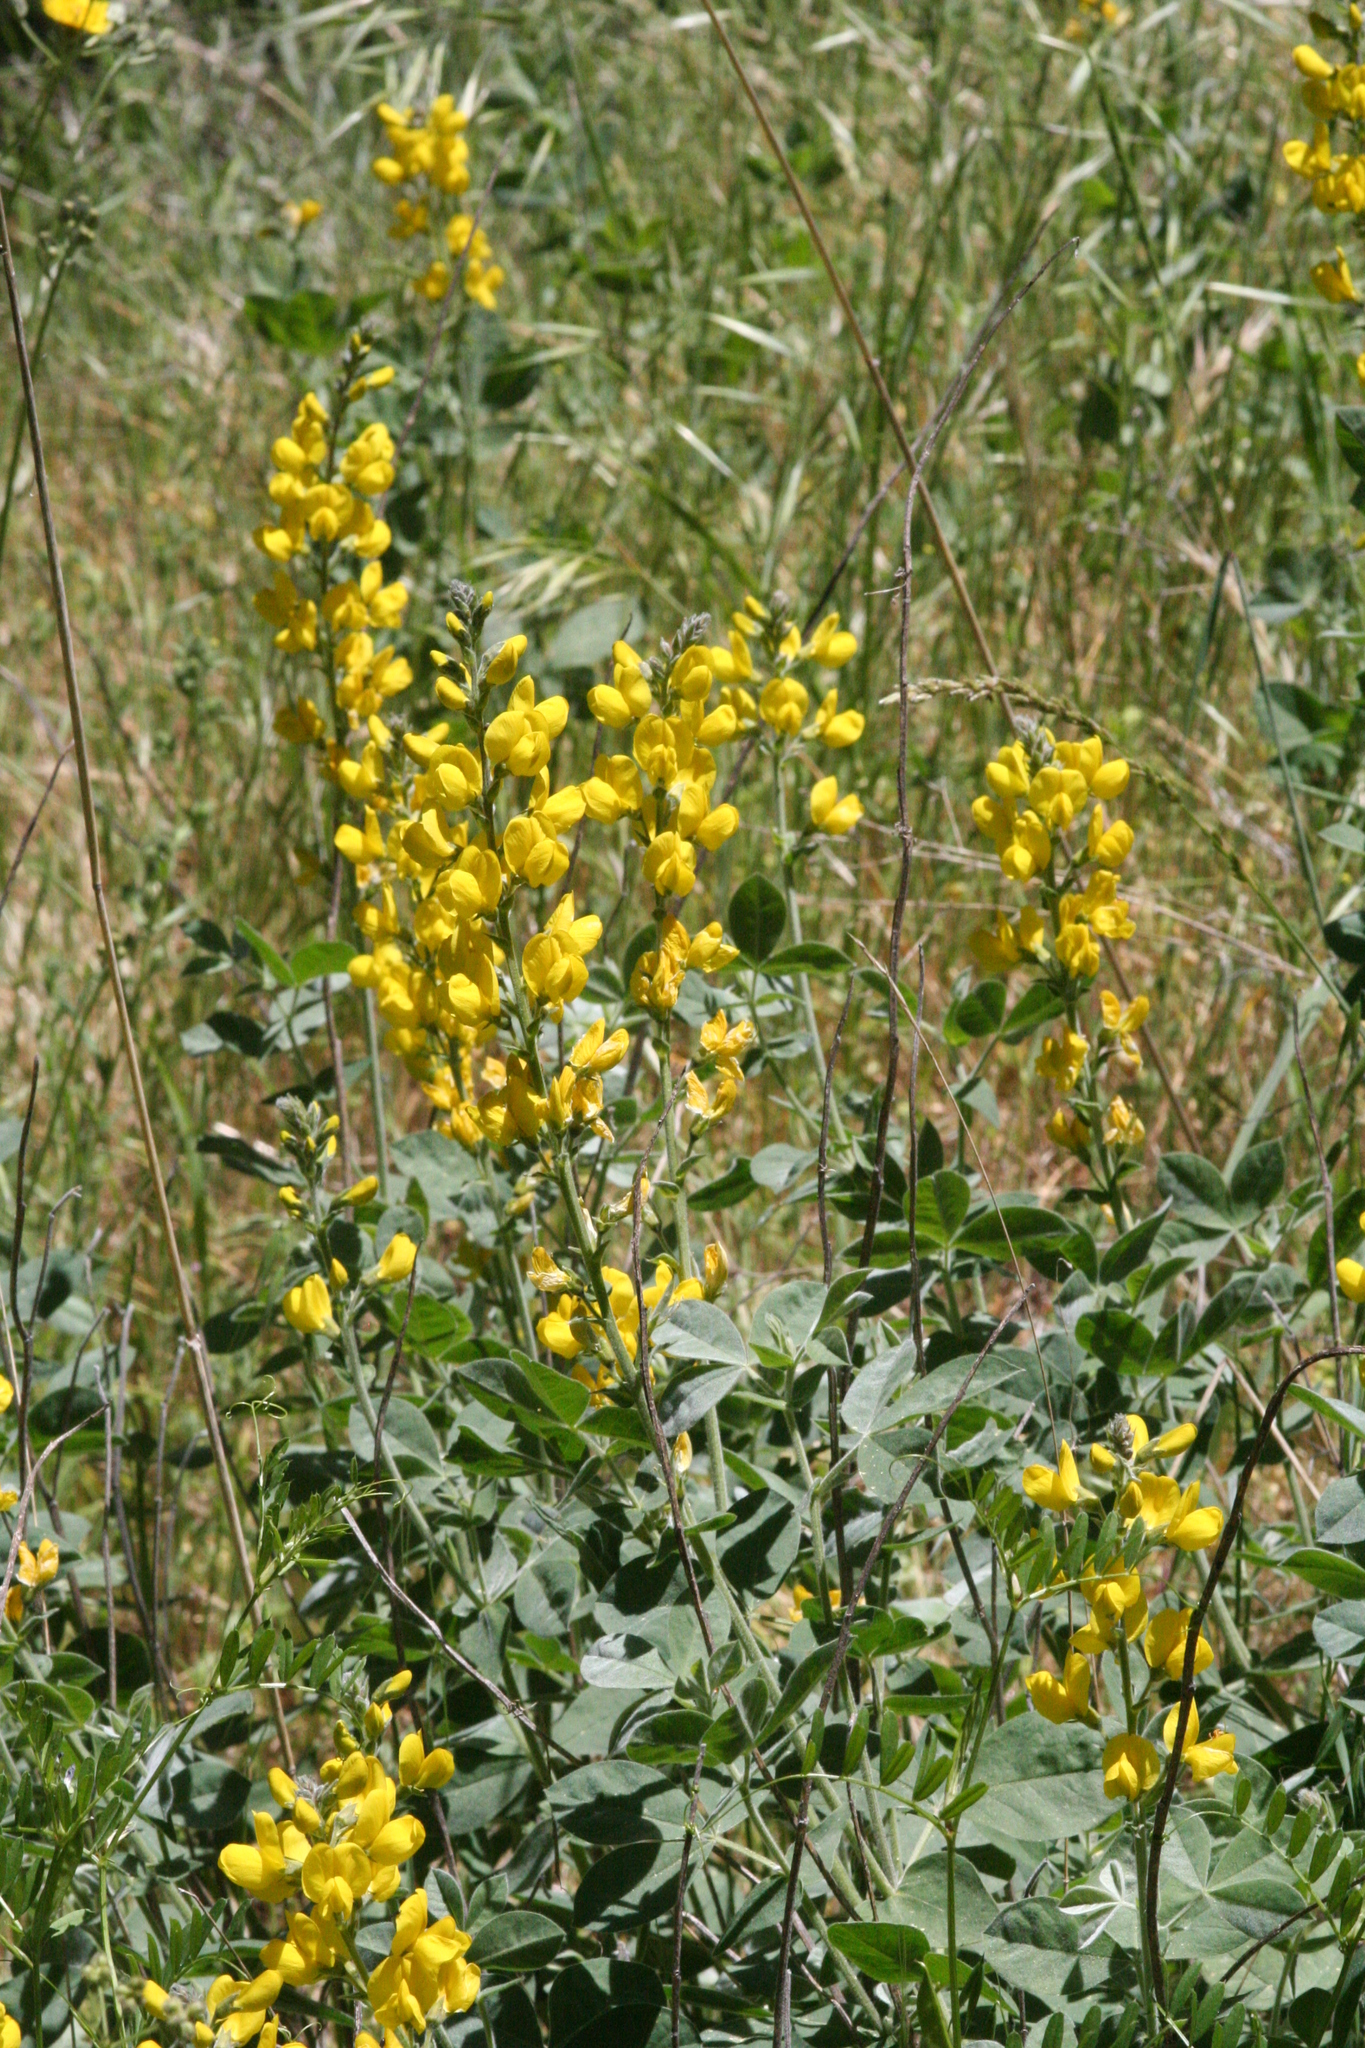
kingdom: Plantae
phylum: Tracheophyta
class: Magnoliopsida
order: Fabales
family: Fabaceae
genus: Thermopsis
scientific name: Thermopsis californica
